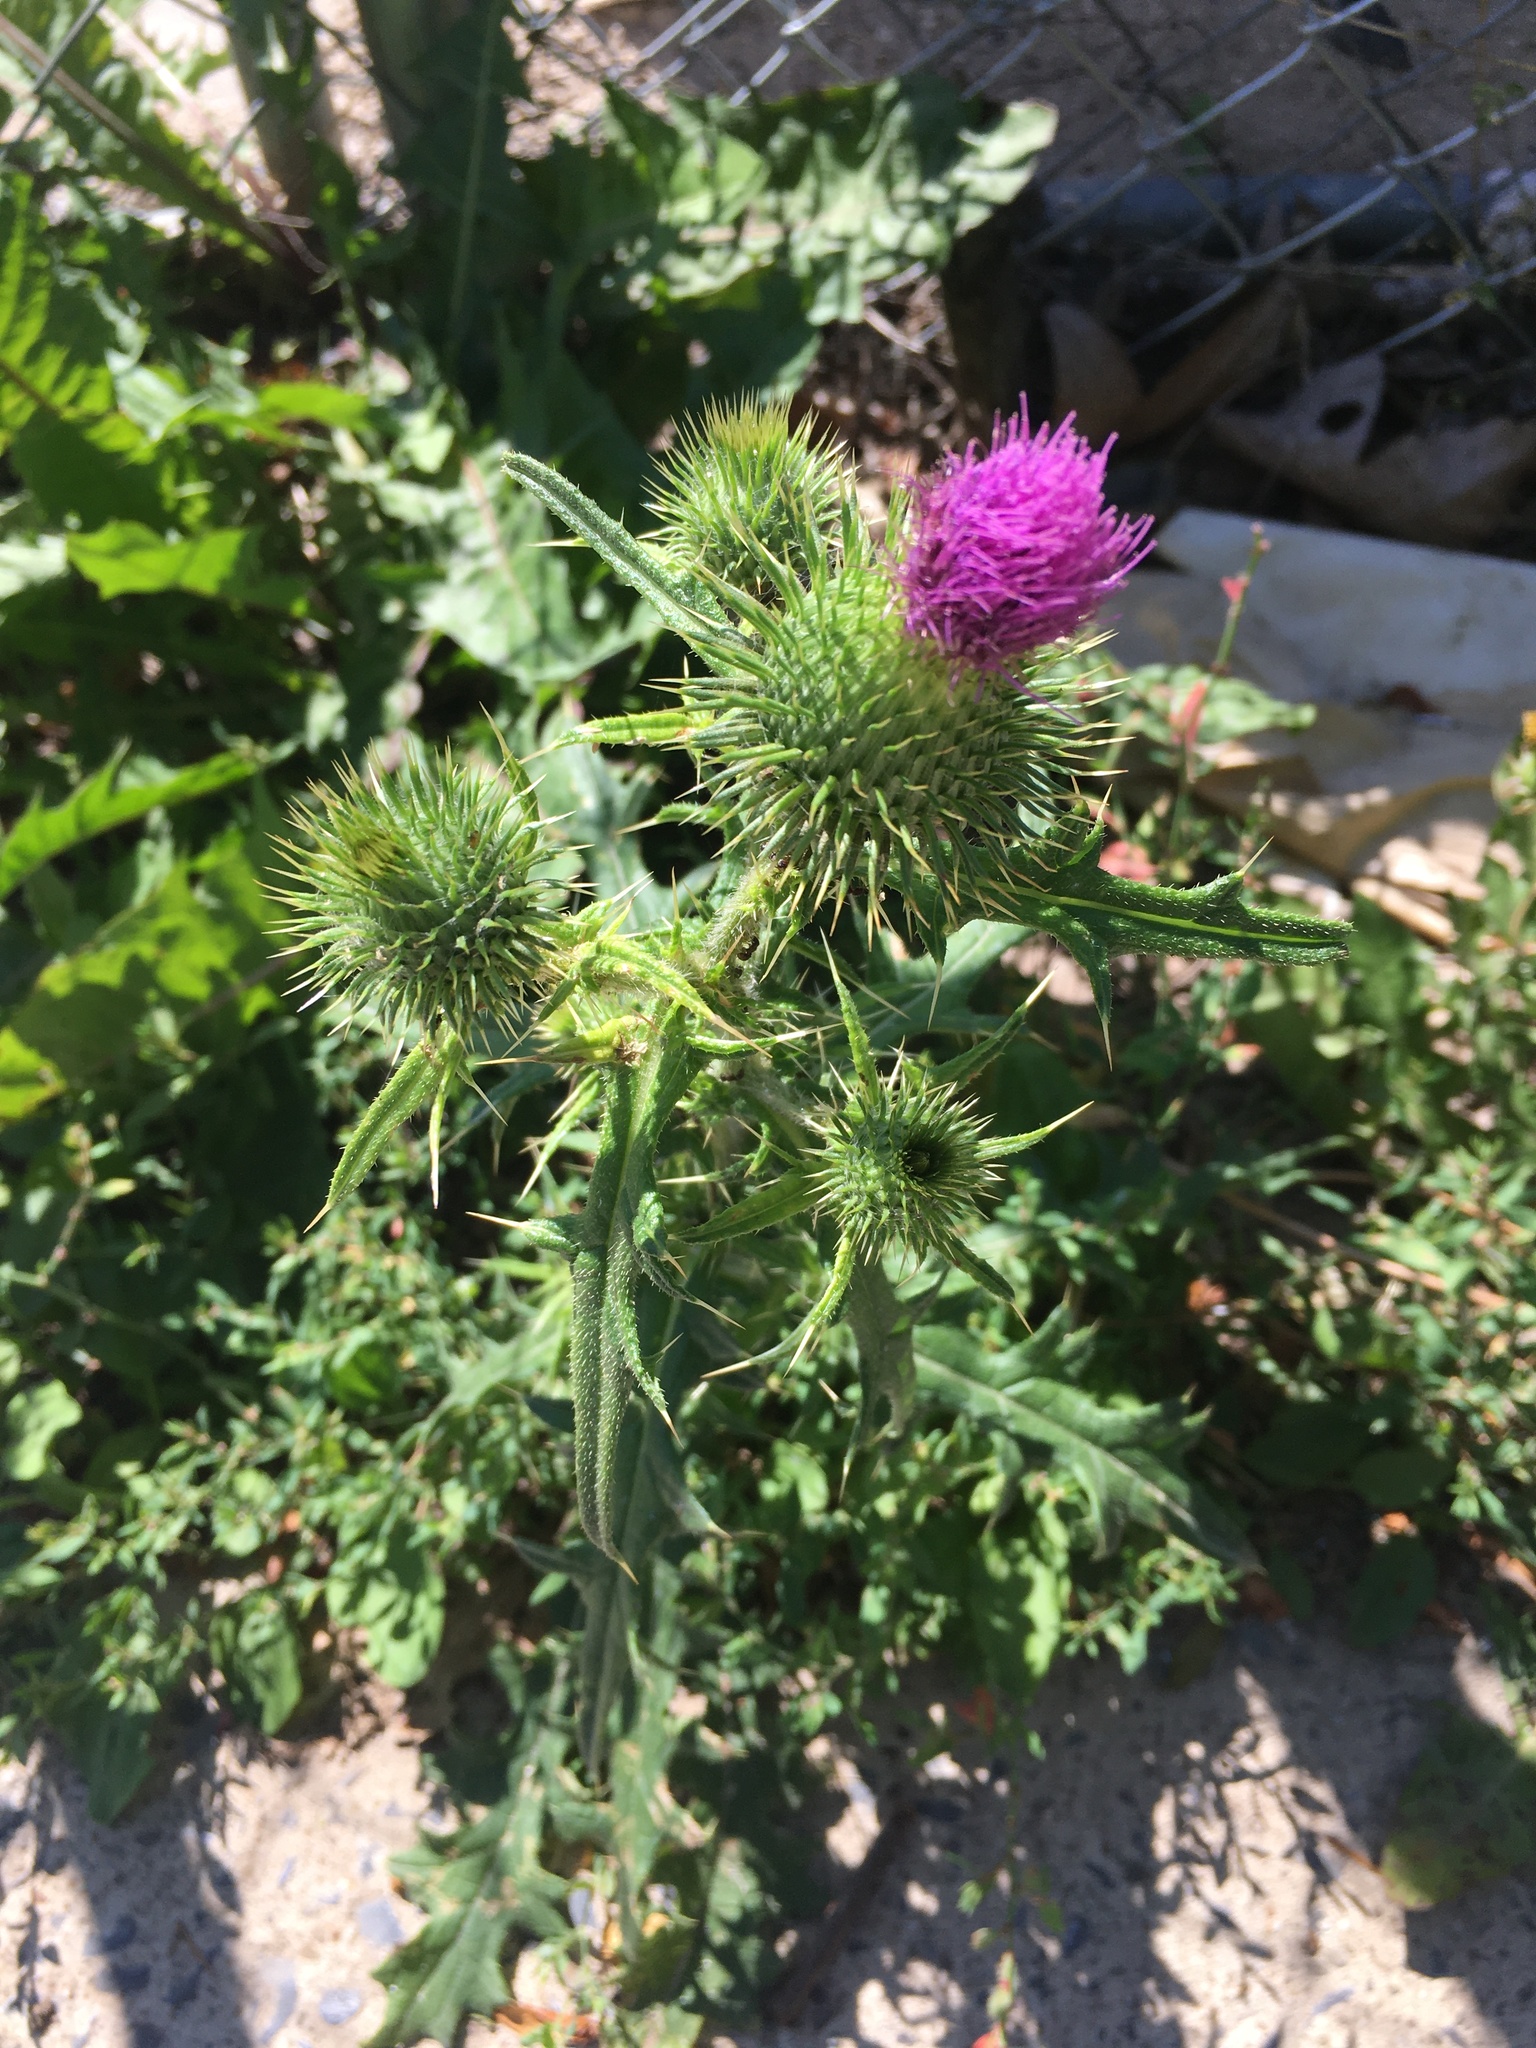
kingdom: Plantae
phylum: Tracheophyta
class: Magnoliopsida
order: Asterales
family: Asteraceae
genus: Cirsium
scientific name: Cirsium vulgare
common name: Bull thistle
